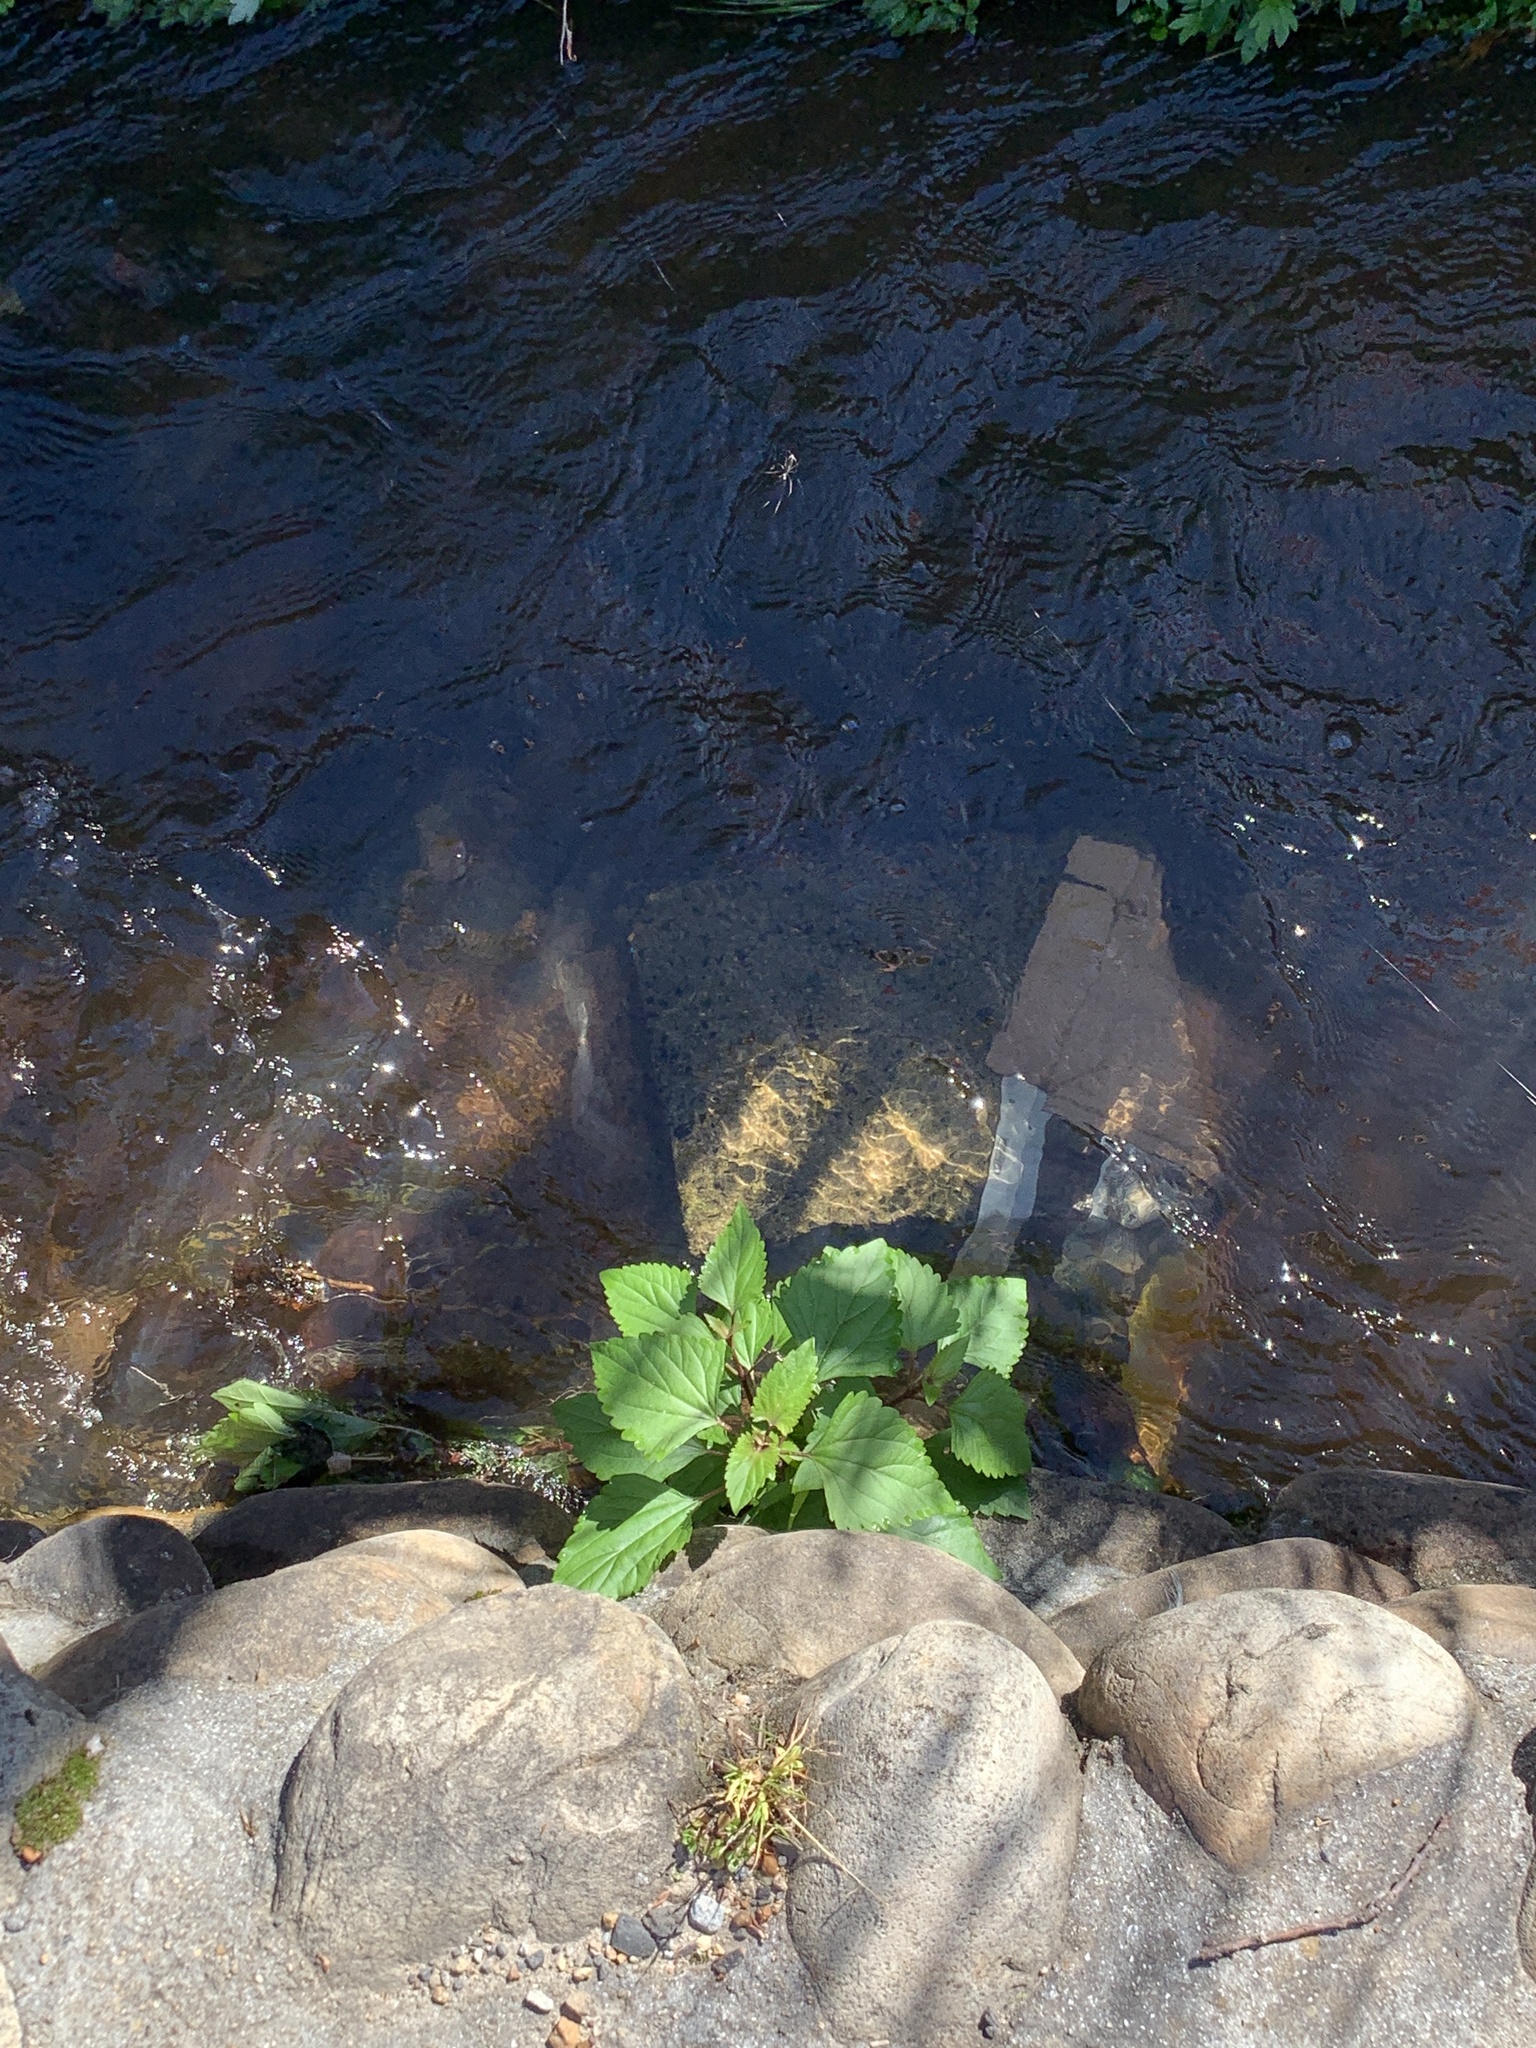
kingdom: Plantae
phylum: Tracheophyta
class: Magnoliopsida
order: Asterales
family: Asteraceae
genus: Ageratina
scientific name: Ageratina adenophora
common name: Sticky snakeroot
